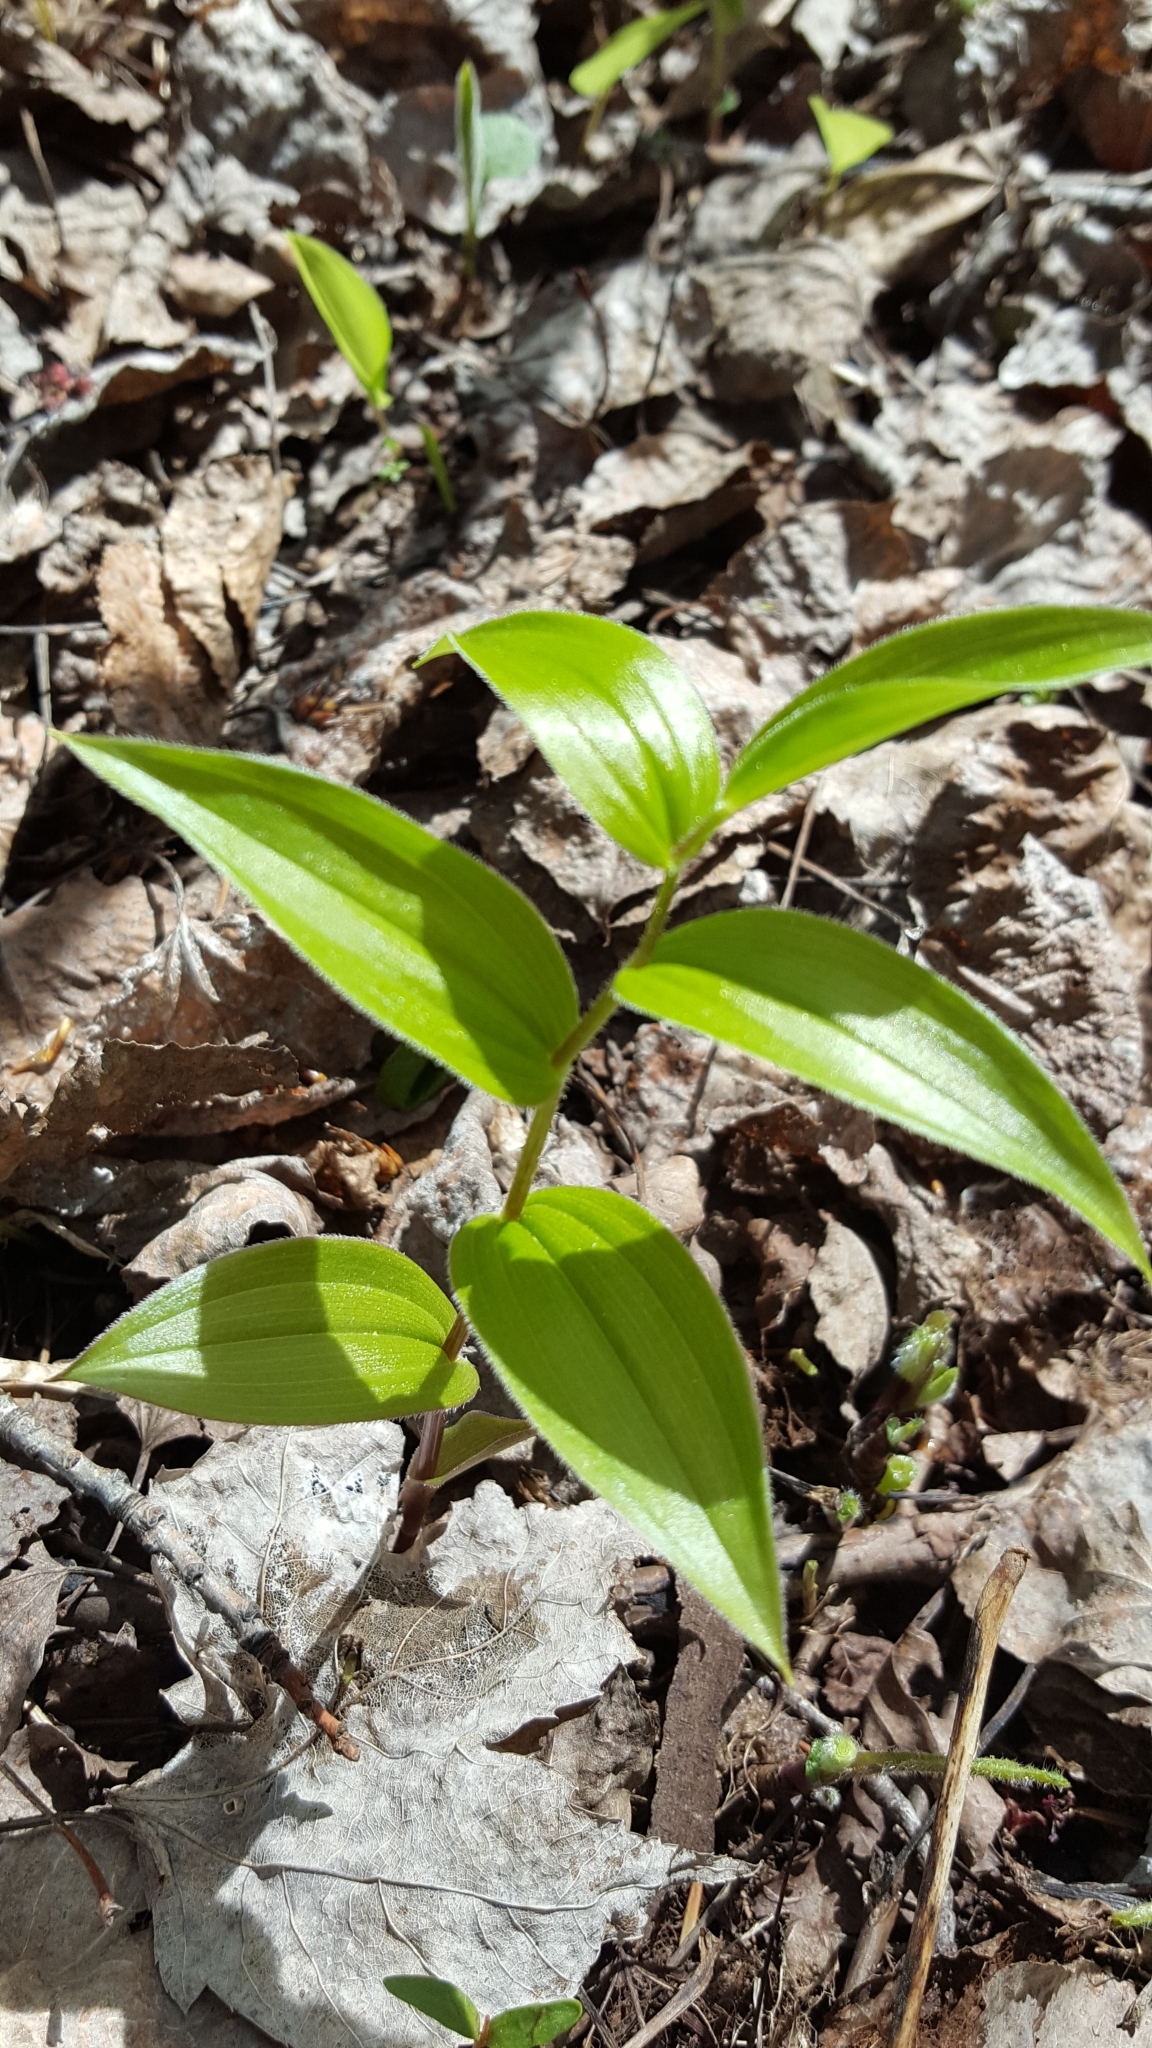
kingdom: Plantae
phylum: Tracheophyta
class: Liliopsida
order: Liliales
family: Liliaceae
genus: Streptopus
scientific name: Streptopus lanceolatus
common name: Rose mandarin
